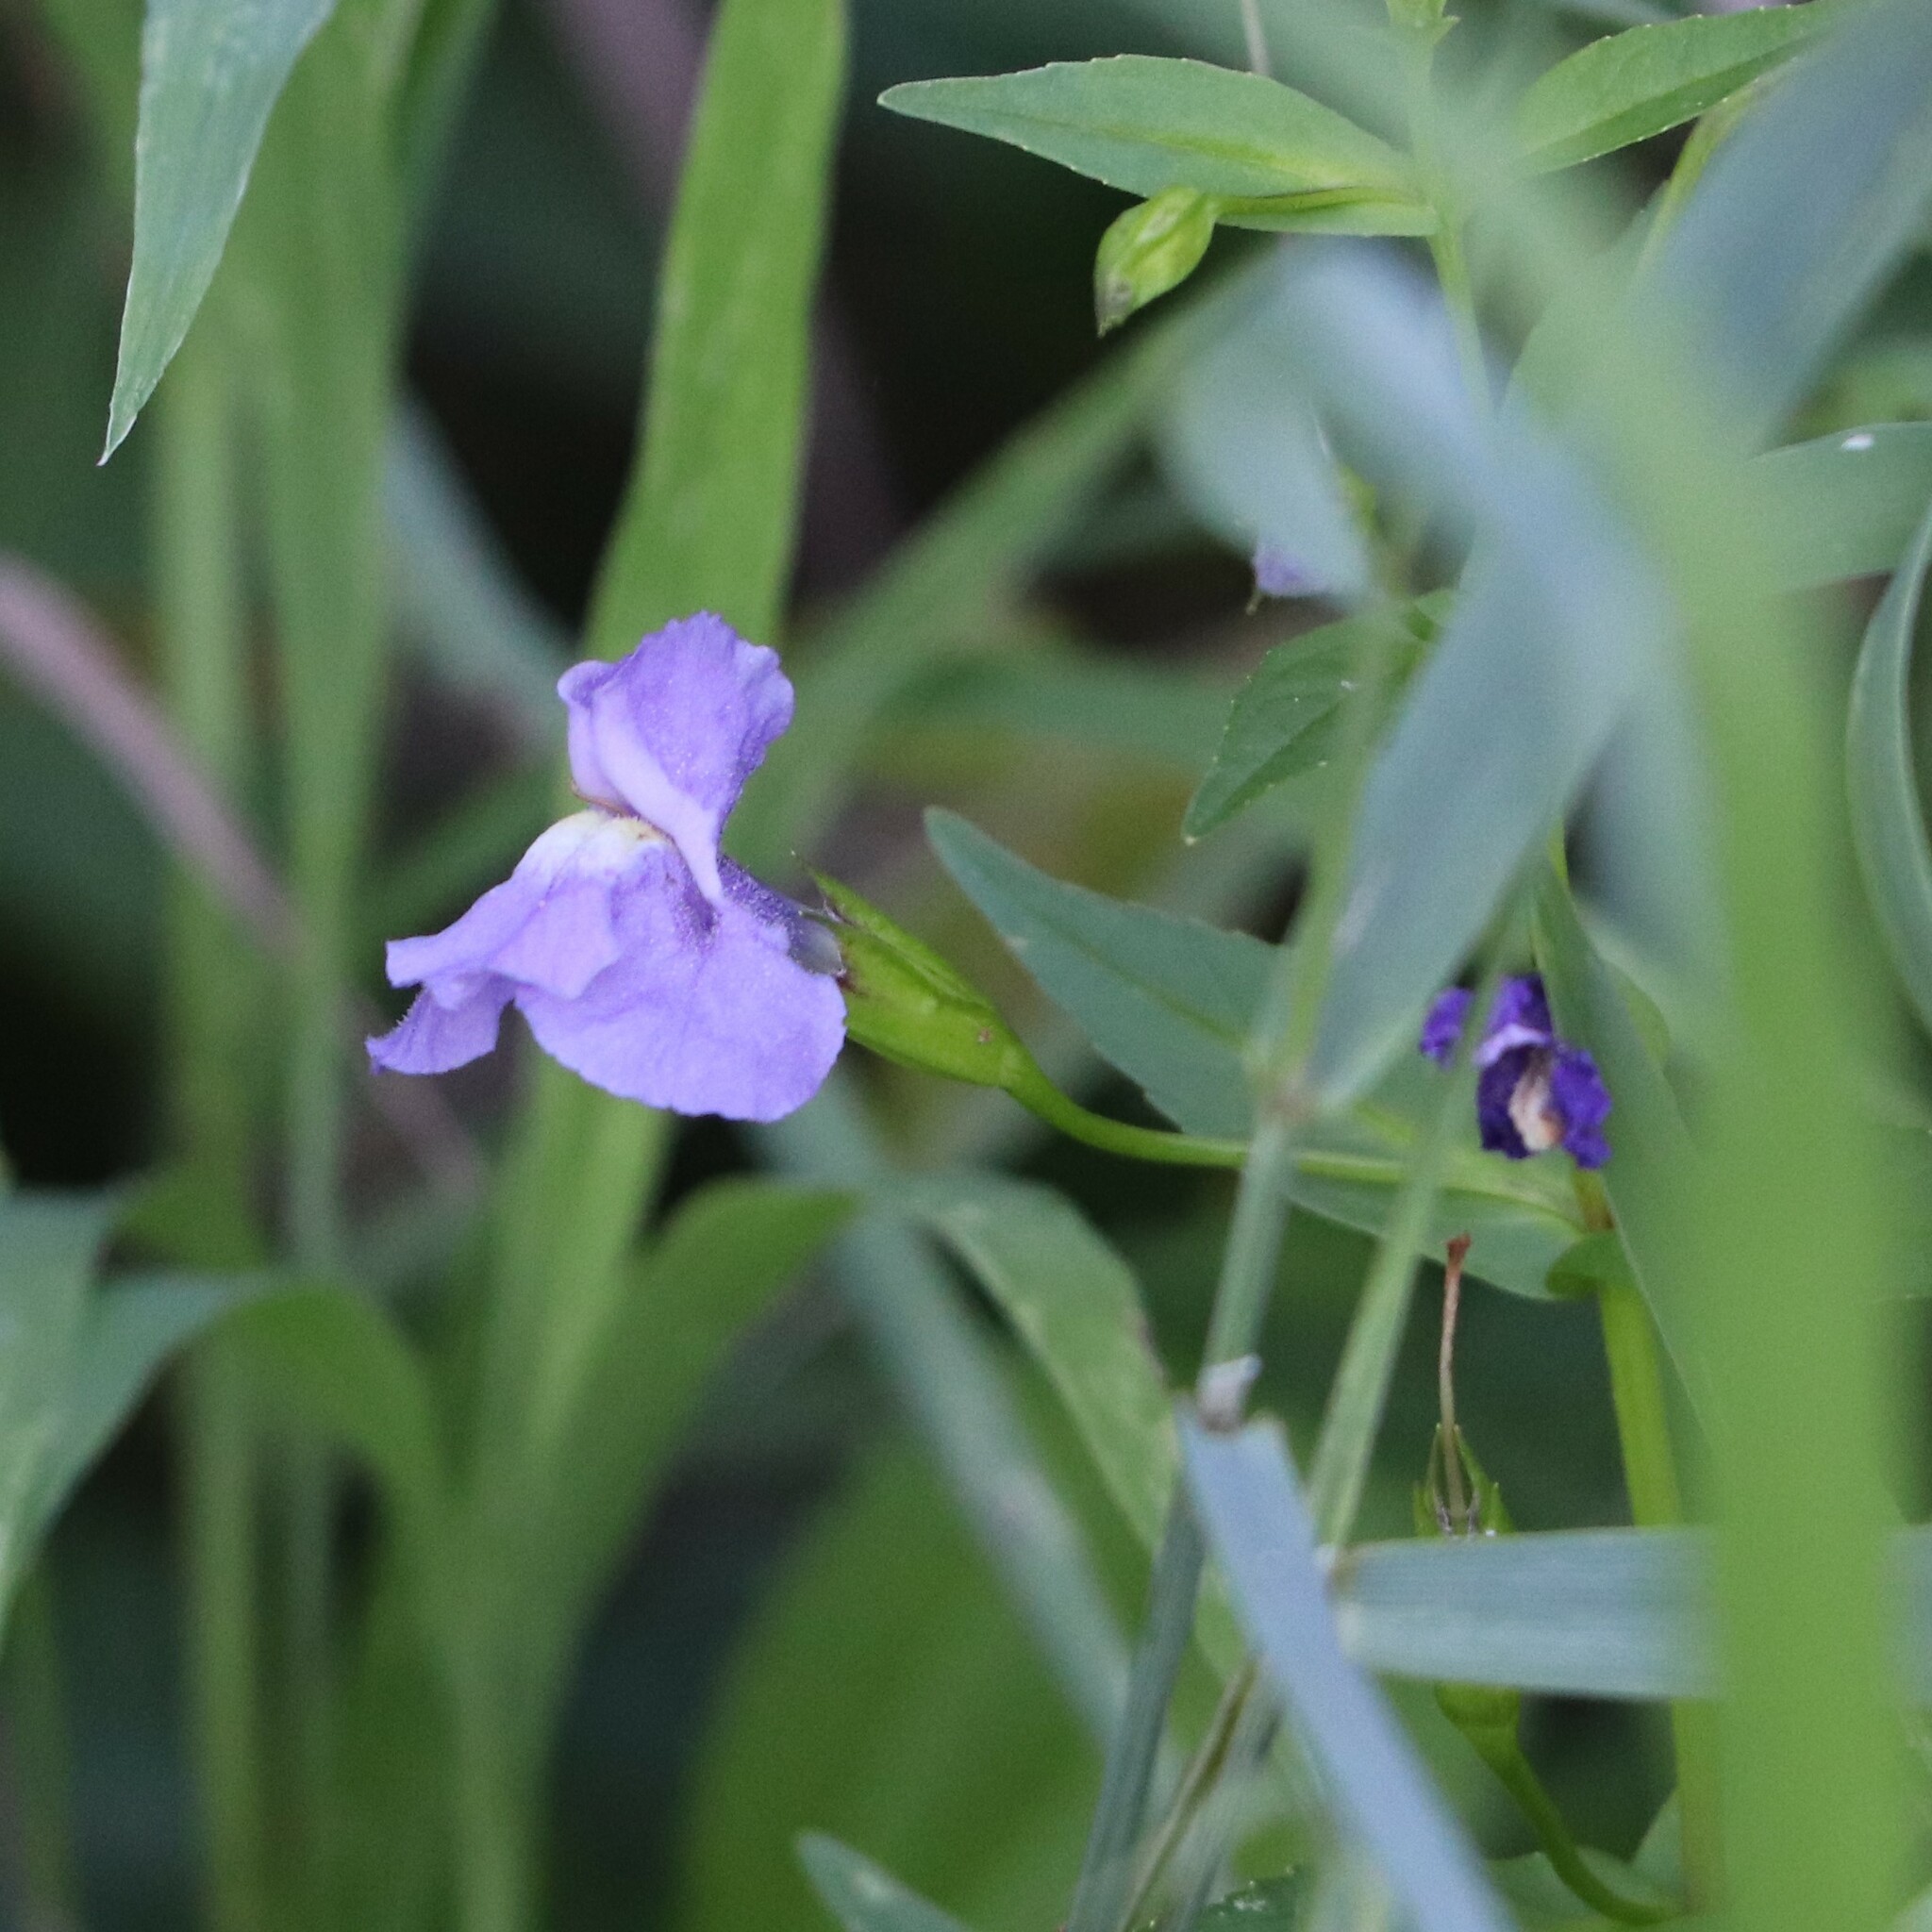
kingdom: Plantae
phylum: Tracheophyta
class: Magnoliopsida
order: Lamiales
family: Phrymaceae
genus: Mimulus
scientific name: Mimulus ringens
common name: Allegheny monkeyflower
